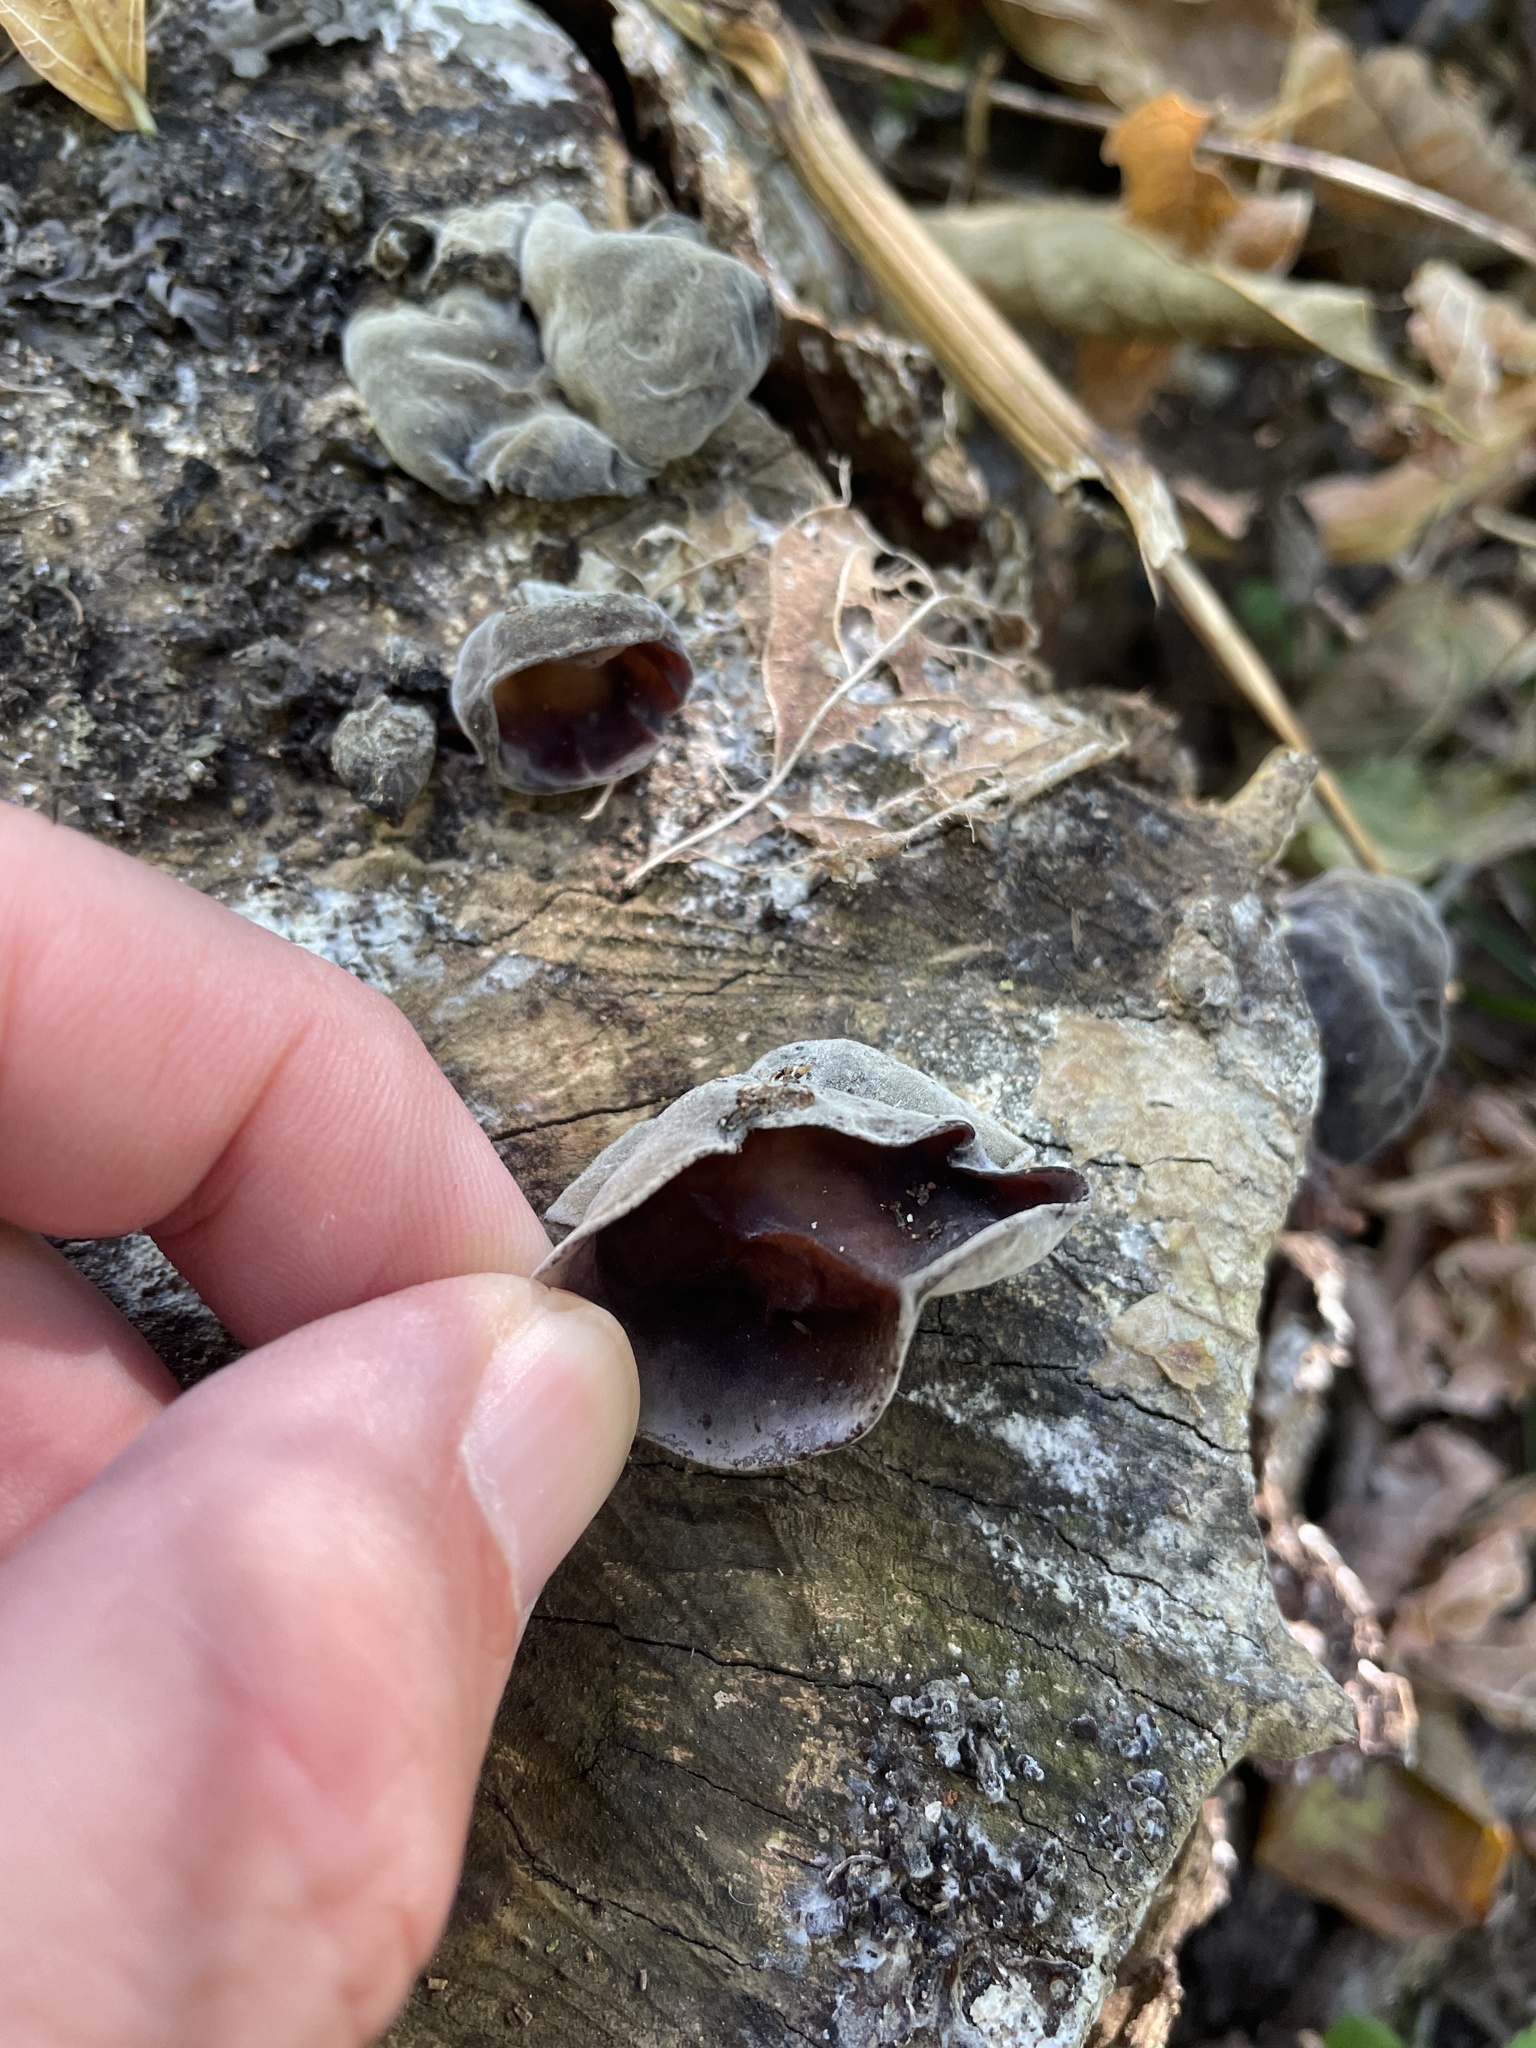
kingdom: Fungi
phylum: Basidiomycota
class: Agaricomycetes
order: Auriculariales
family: Auriculariaceae
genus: Auricularia
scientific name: Auricularia angiospermarum
